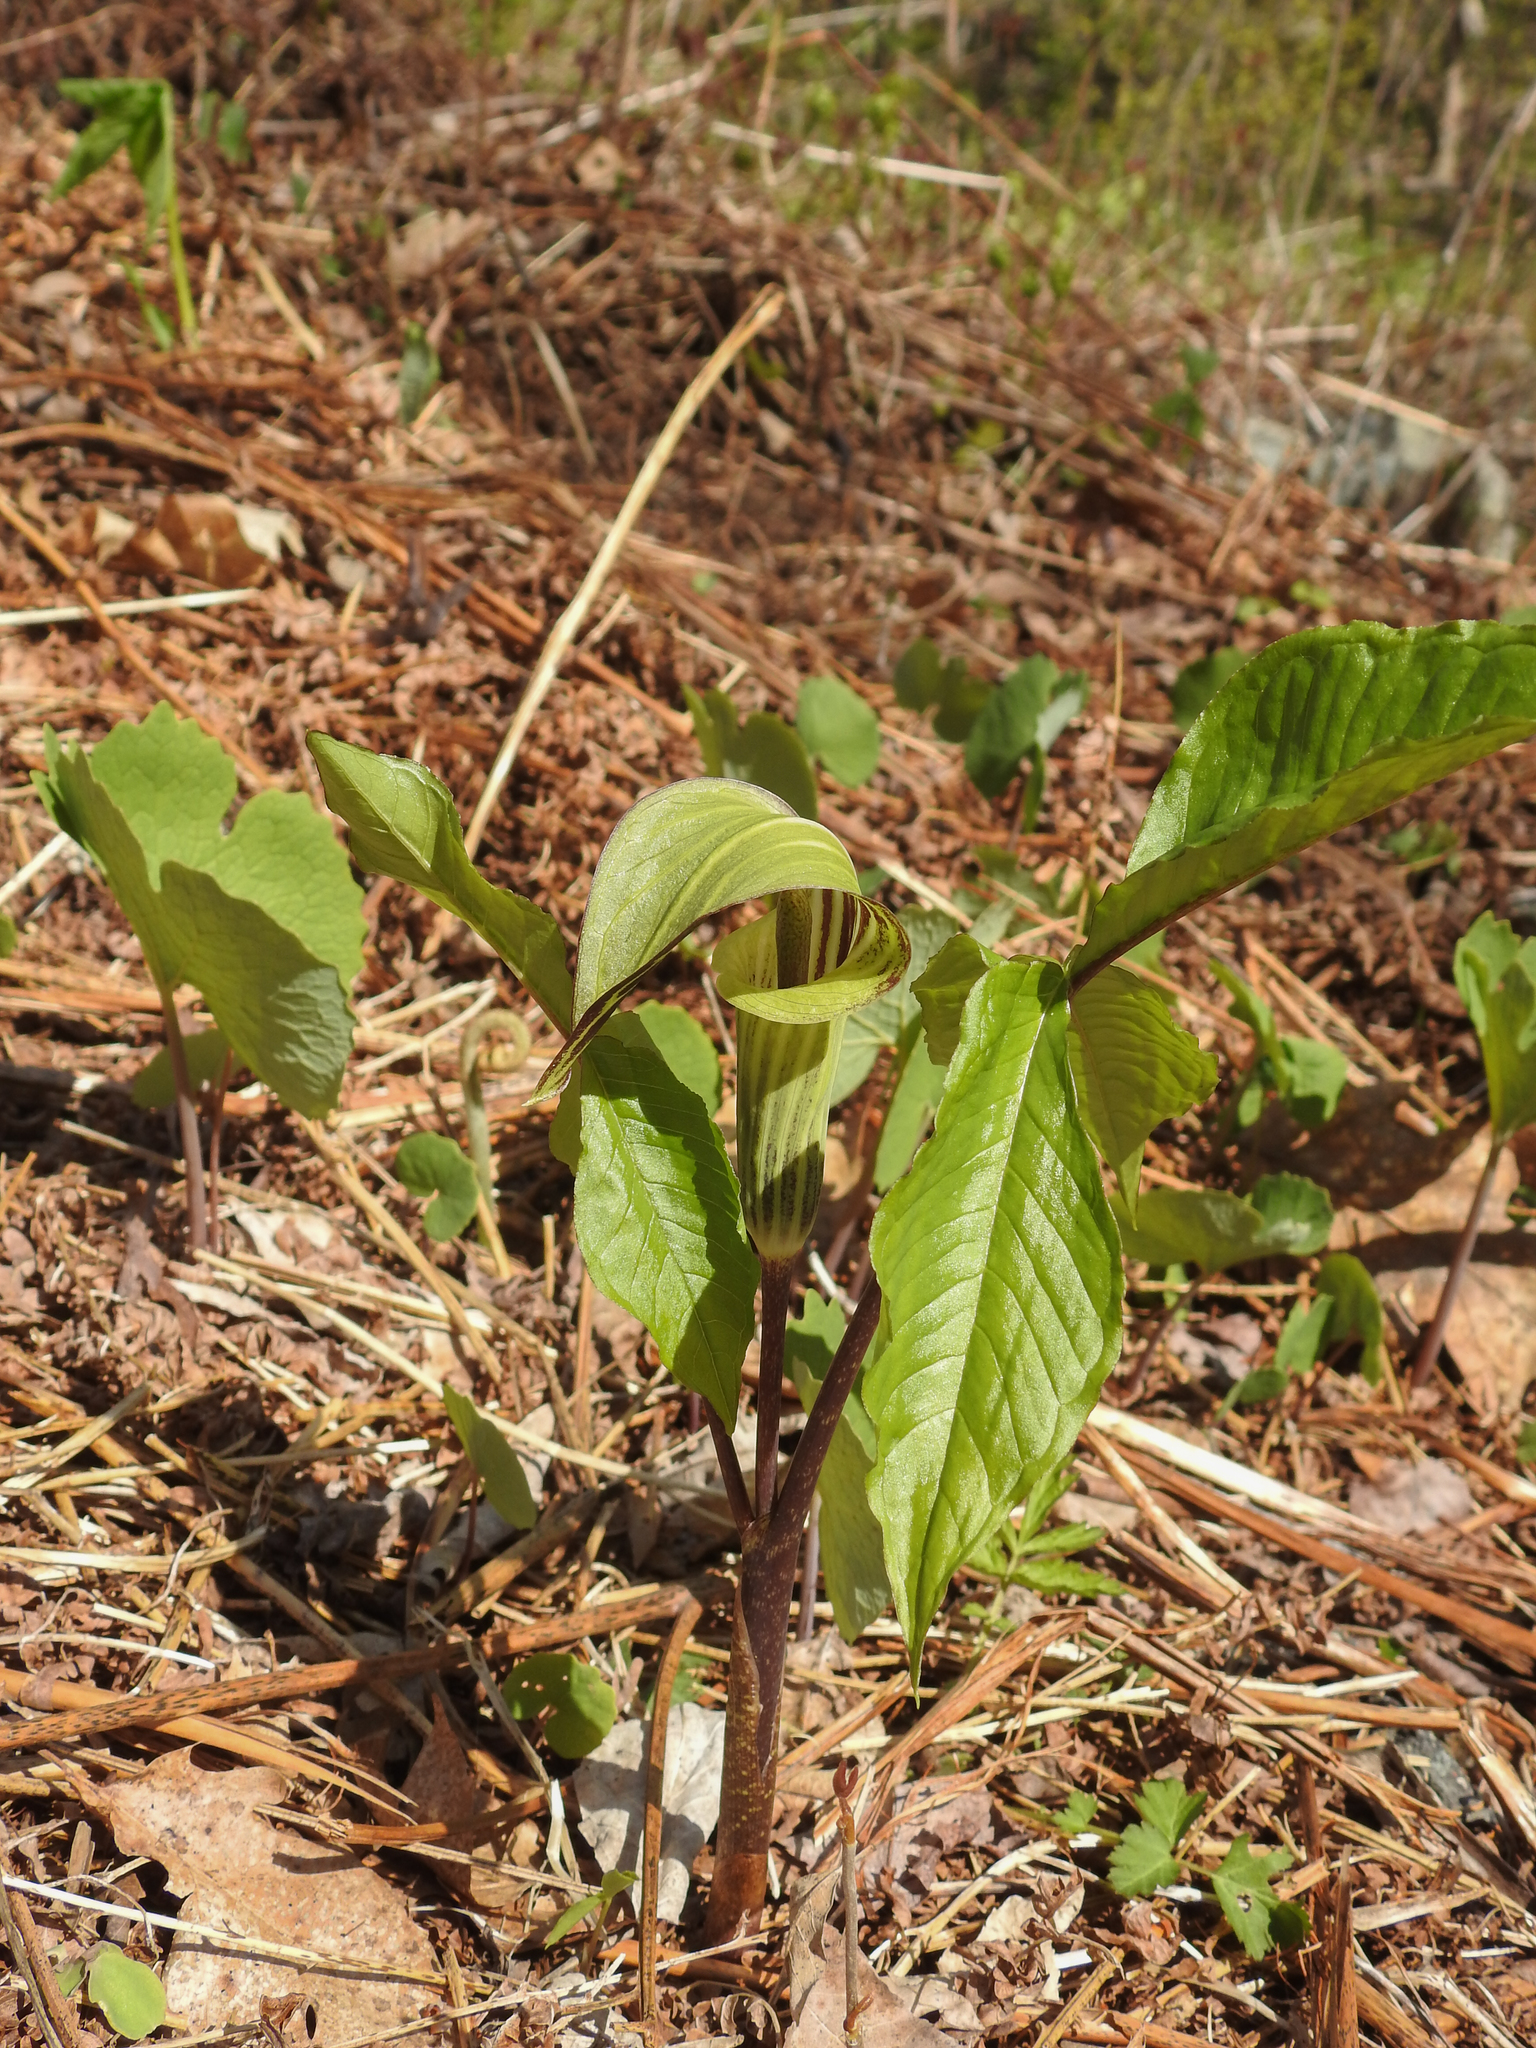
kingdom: Plantae
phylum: Tracheophyta
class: Liliopsida
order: Alismatales
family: Araceae
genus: Arisaema
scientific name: Arisaema triphyllum
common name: Jack-in-the-pulpit
